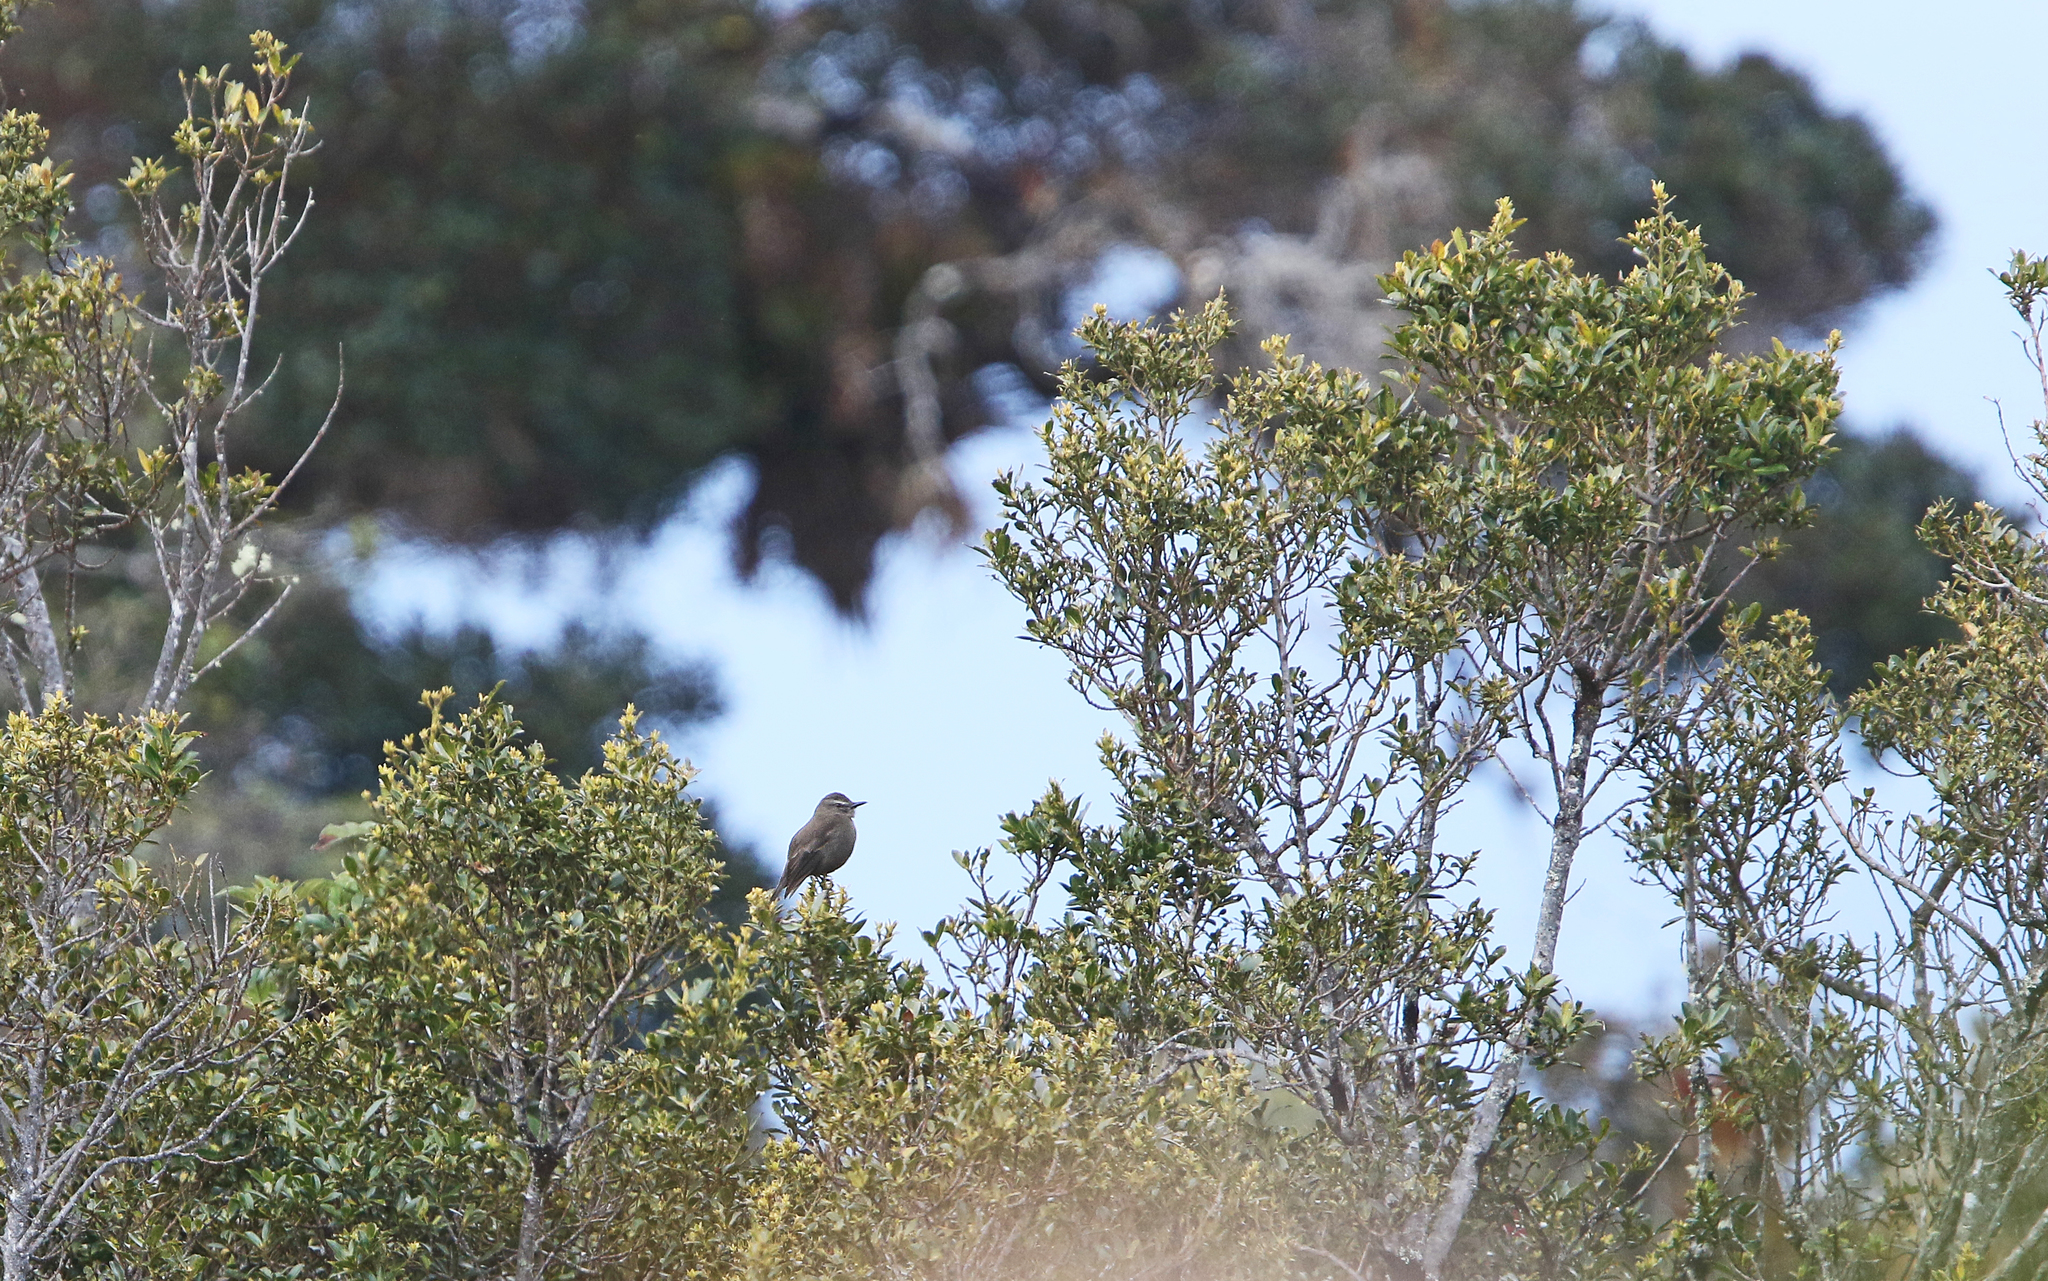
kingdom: Animalia
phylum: Chordata
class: Aves
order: Passeriformes
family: Tyrannidae
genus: Myiotheretes
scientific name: Myiotheretes fumigatus
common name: Smoky bush tyrant
